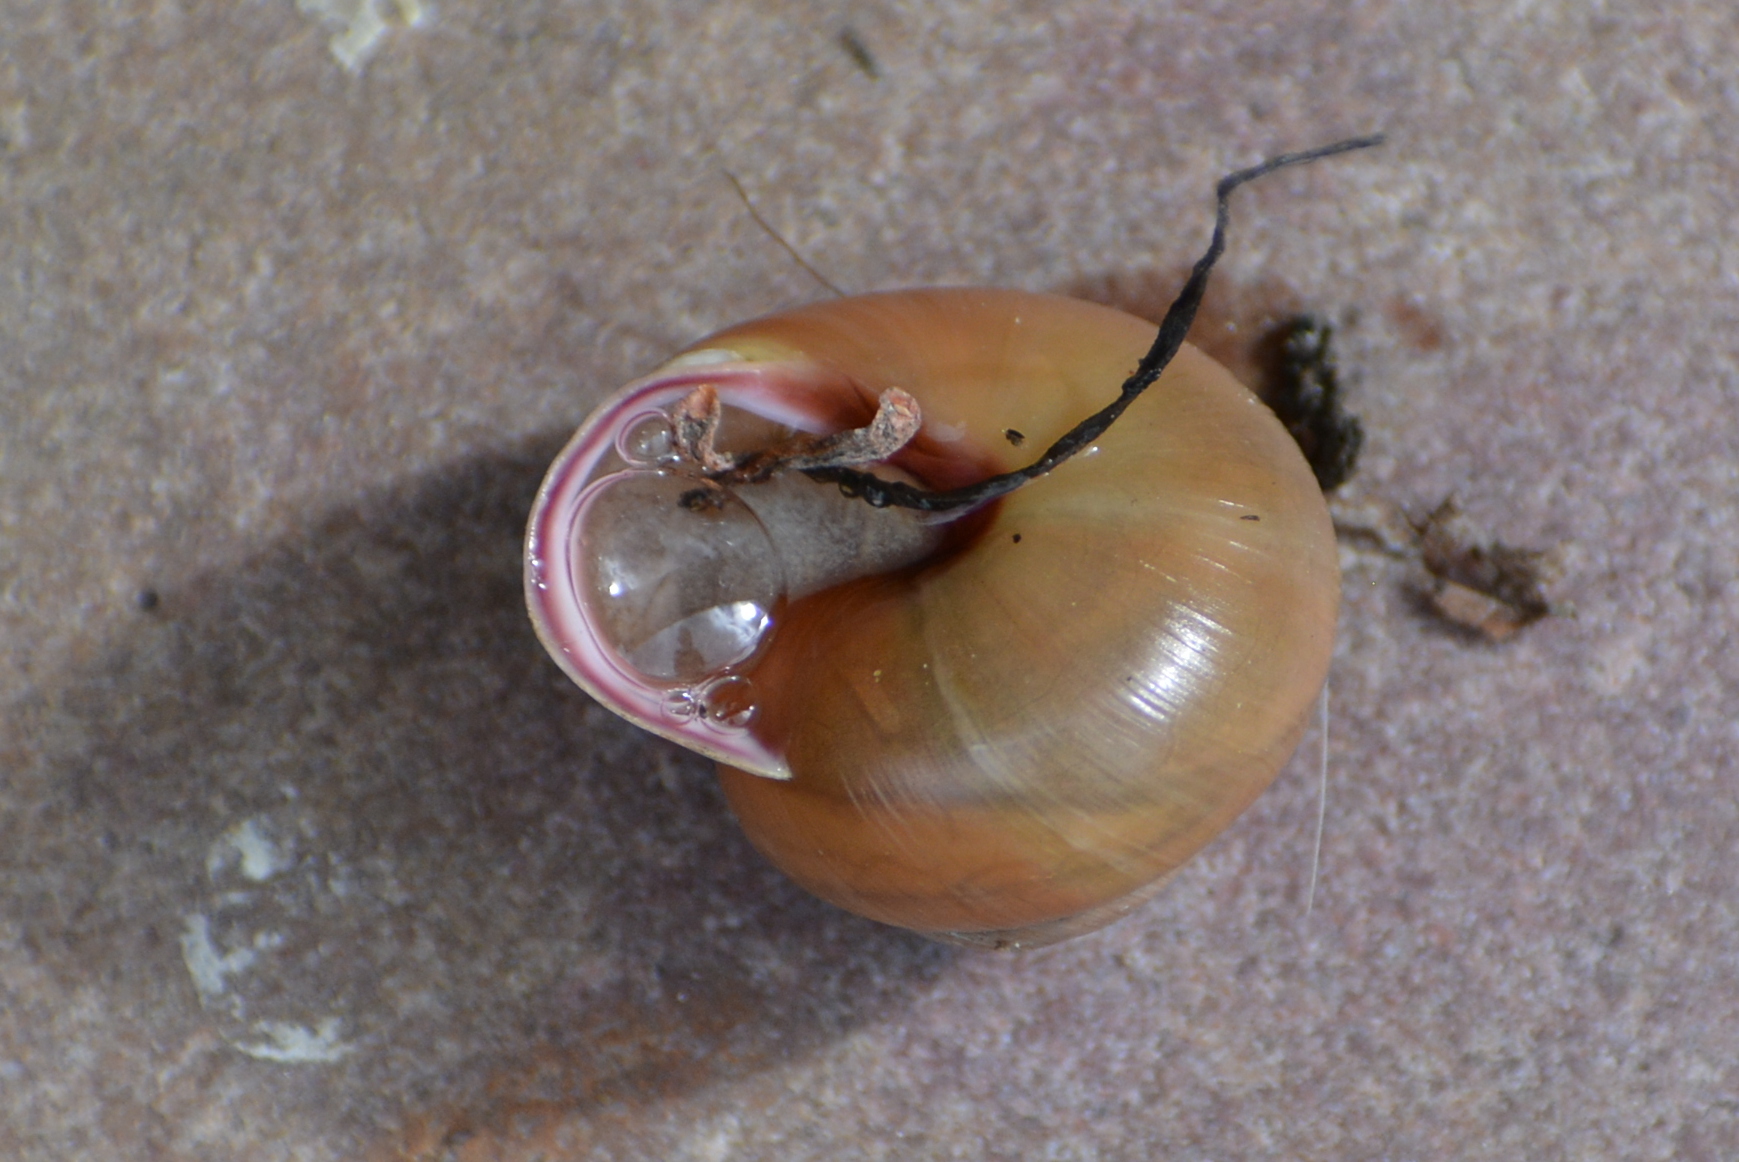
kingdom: Animalia
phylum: Mollusca
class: Gastropoda
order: Stylommatophora
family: Helicidae
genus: Cepaea
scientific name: Cepaea nemoralis
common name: Grovesnail
